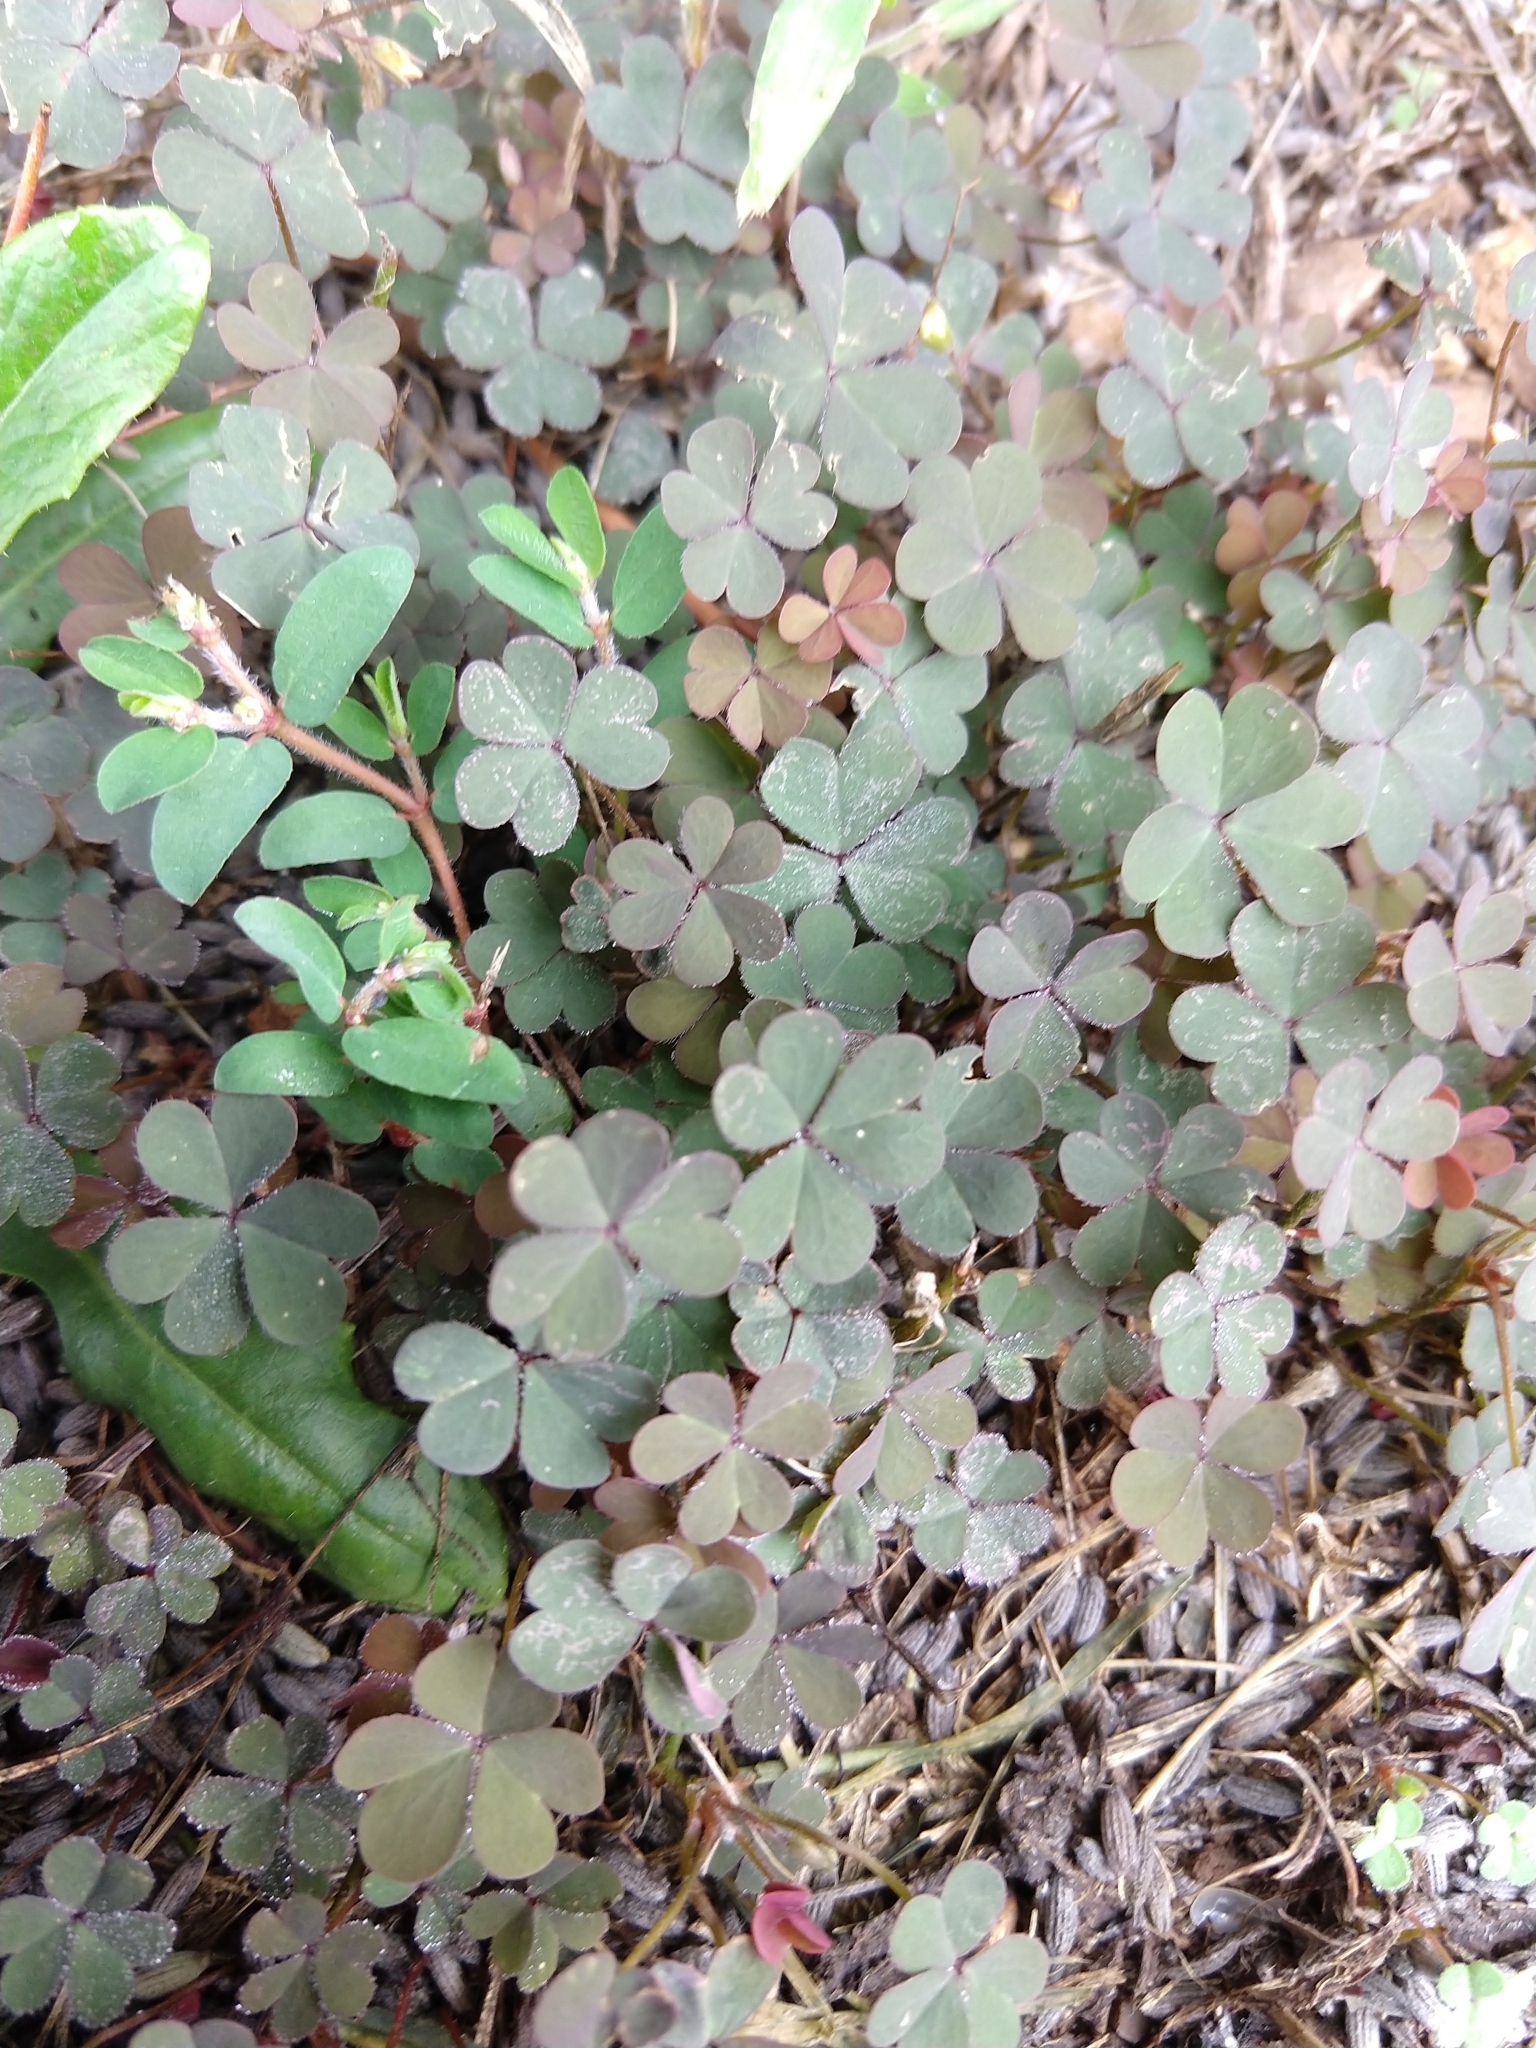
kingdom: Plantae
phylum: Tracheophyta
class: Magnoliopsida
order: Oxalidales
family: Oxalidaceae
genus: Oxalis
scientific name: Oxalis corniculata
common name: Procumbent yellow-sorrel
